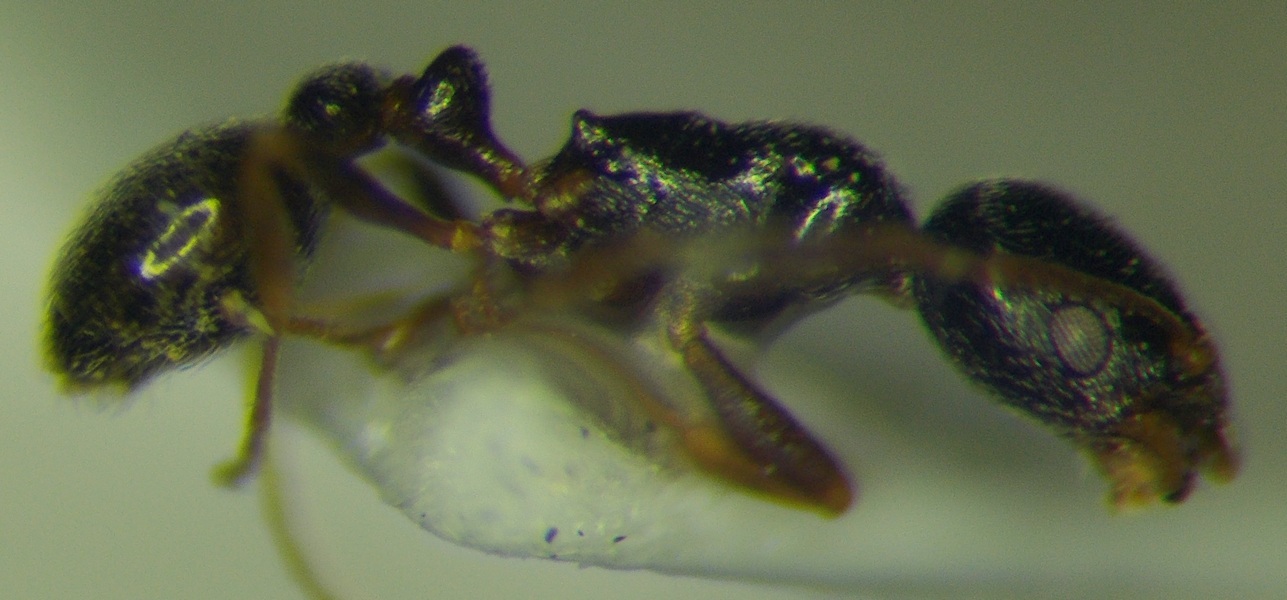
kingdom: Animalia
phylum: Arthropoda
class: Insecta
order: Hymenoptera
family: Formicidae
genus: Cardiocondyla
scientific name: Cardiocondyla stambuloffii
